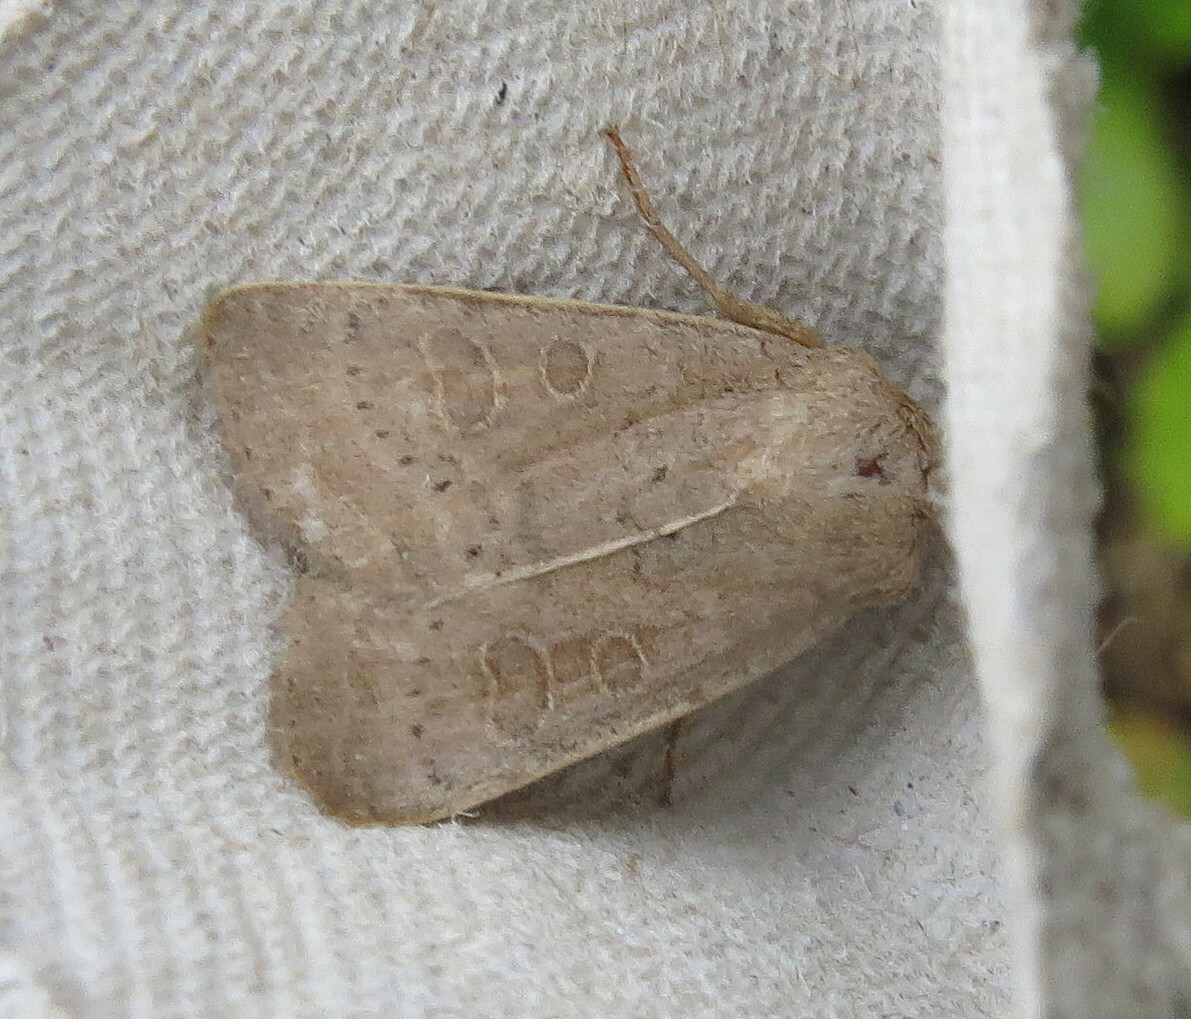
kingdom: Animalia
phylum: Arthropoda
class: Insecta
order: Lepidoptera
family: Noctuidae
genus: Hoplodrina
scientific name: Hoplodrina ambigua
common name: Vine's rustic
